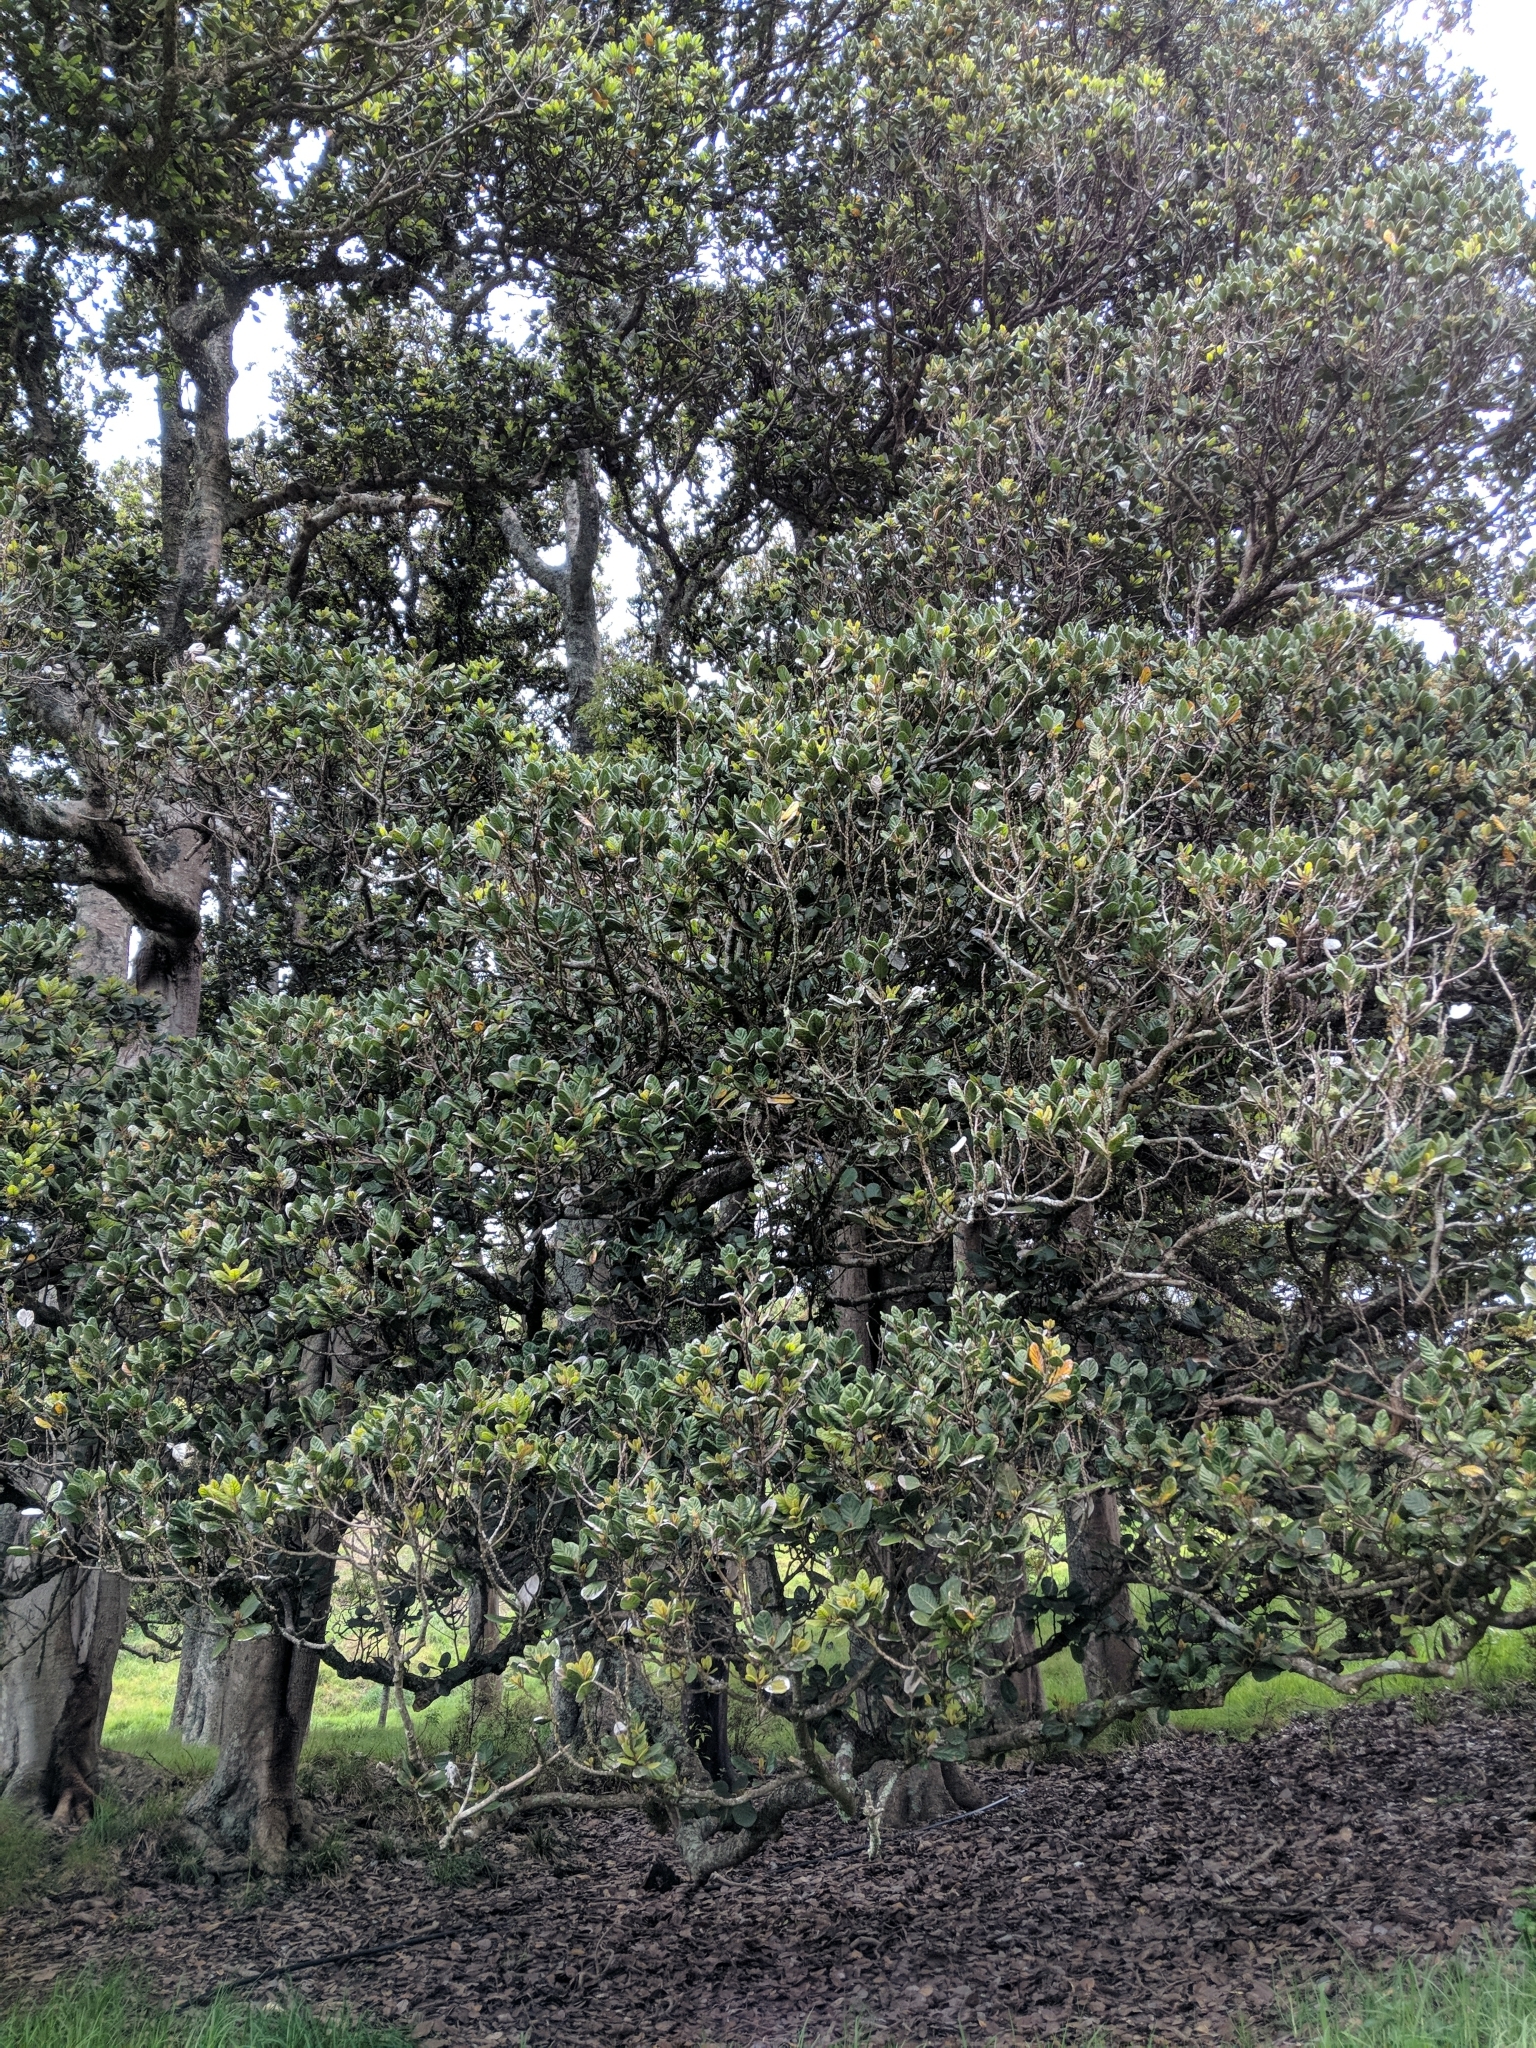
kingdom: Plantae
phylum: Tracheophyta
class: Magnoliopsida
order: Laurales
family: Lauraceae
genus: Beilschmiedia
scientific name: Beilschmiedia tarairi
